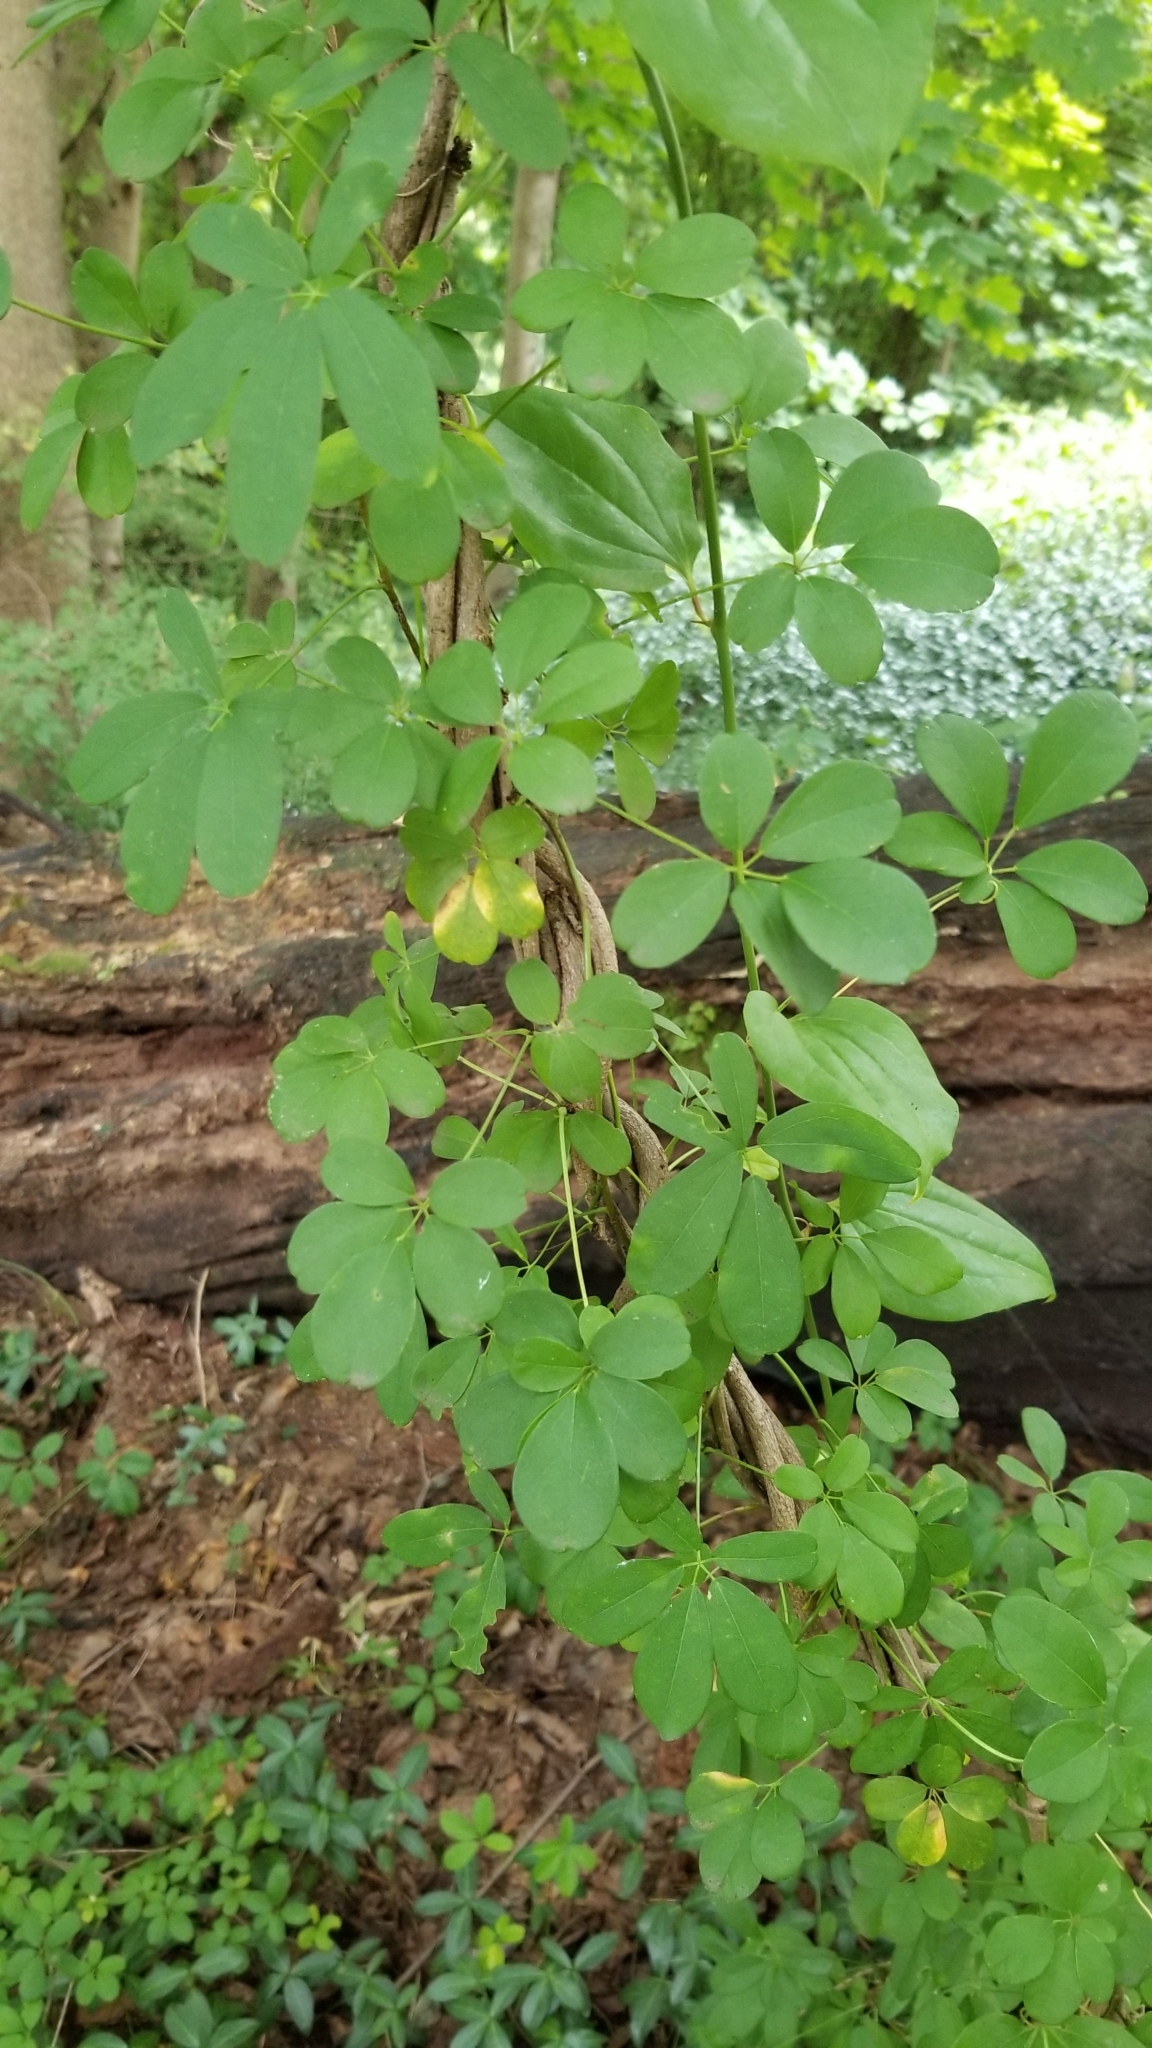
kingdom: Plantae
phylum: Tracheophyta
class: Magnoliopsida
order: Ranunculales
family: Lardizabalaceae
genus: Akebia
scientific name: Akebia quinata
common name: Five-leaf akebia
